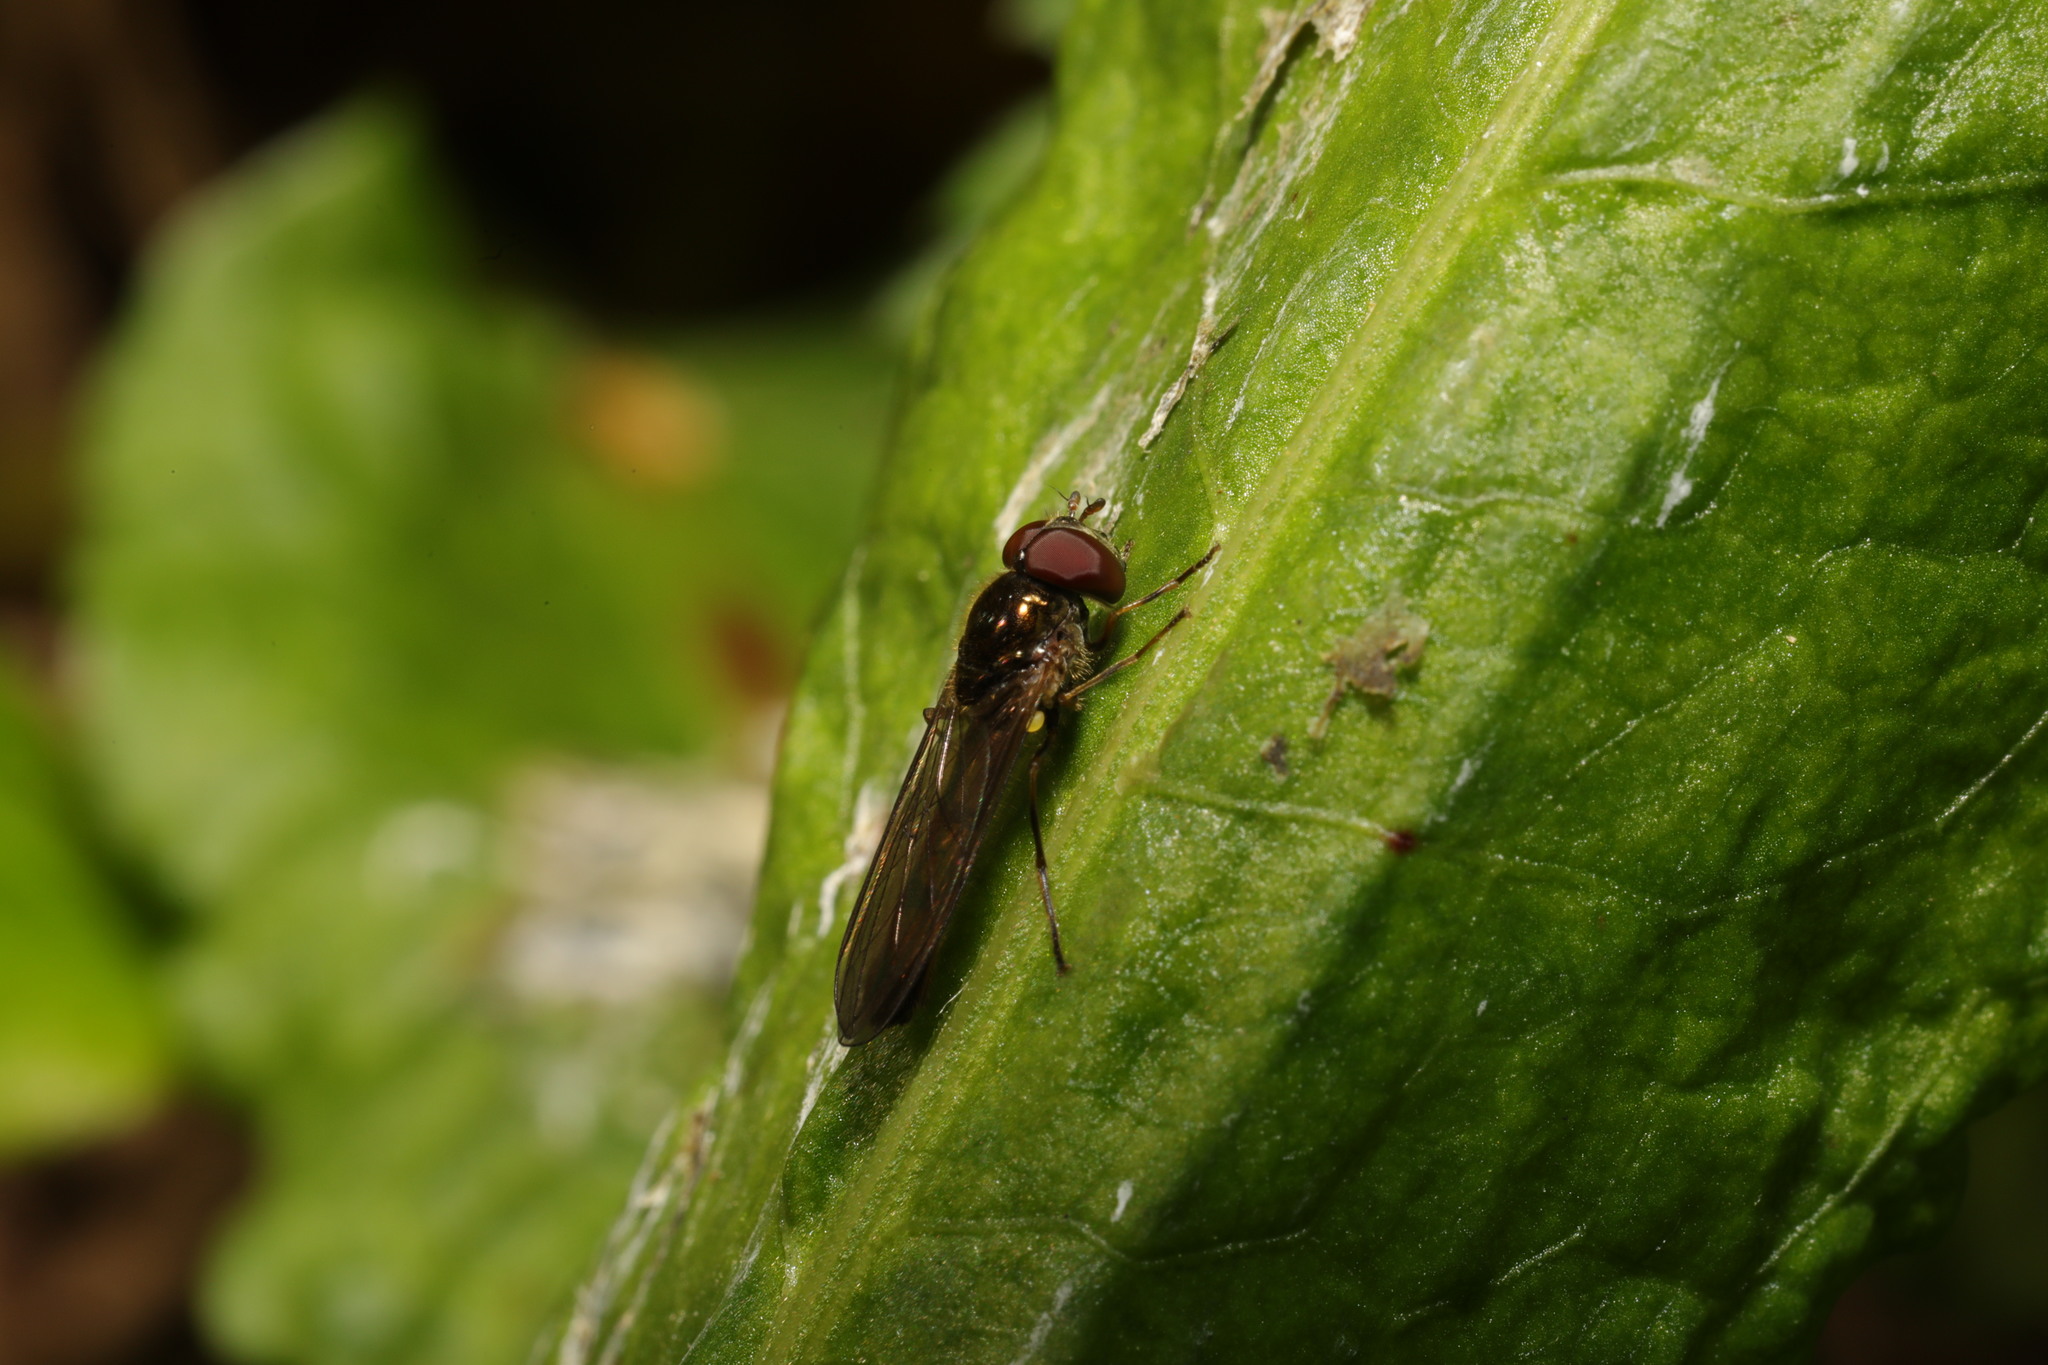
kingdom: Animalia
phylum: Arthropoda
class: Insecta
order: Diptera
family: Syrphidae
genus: Melanostoma
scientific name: Melanostoma scalare
